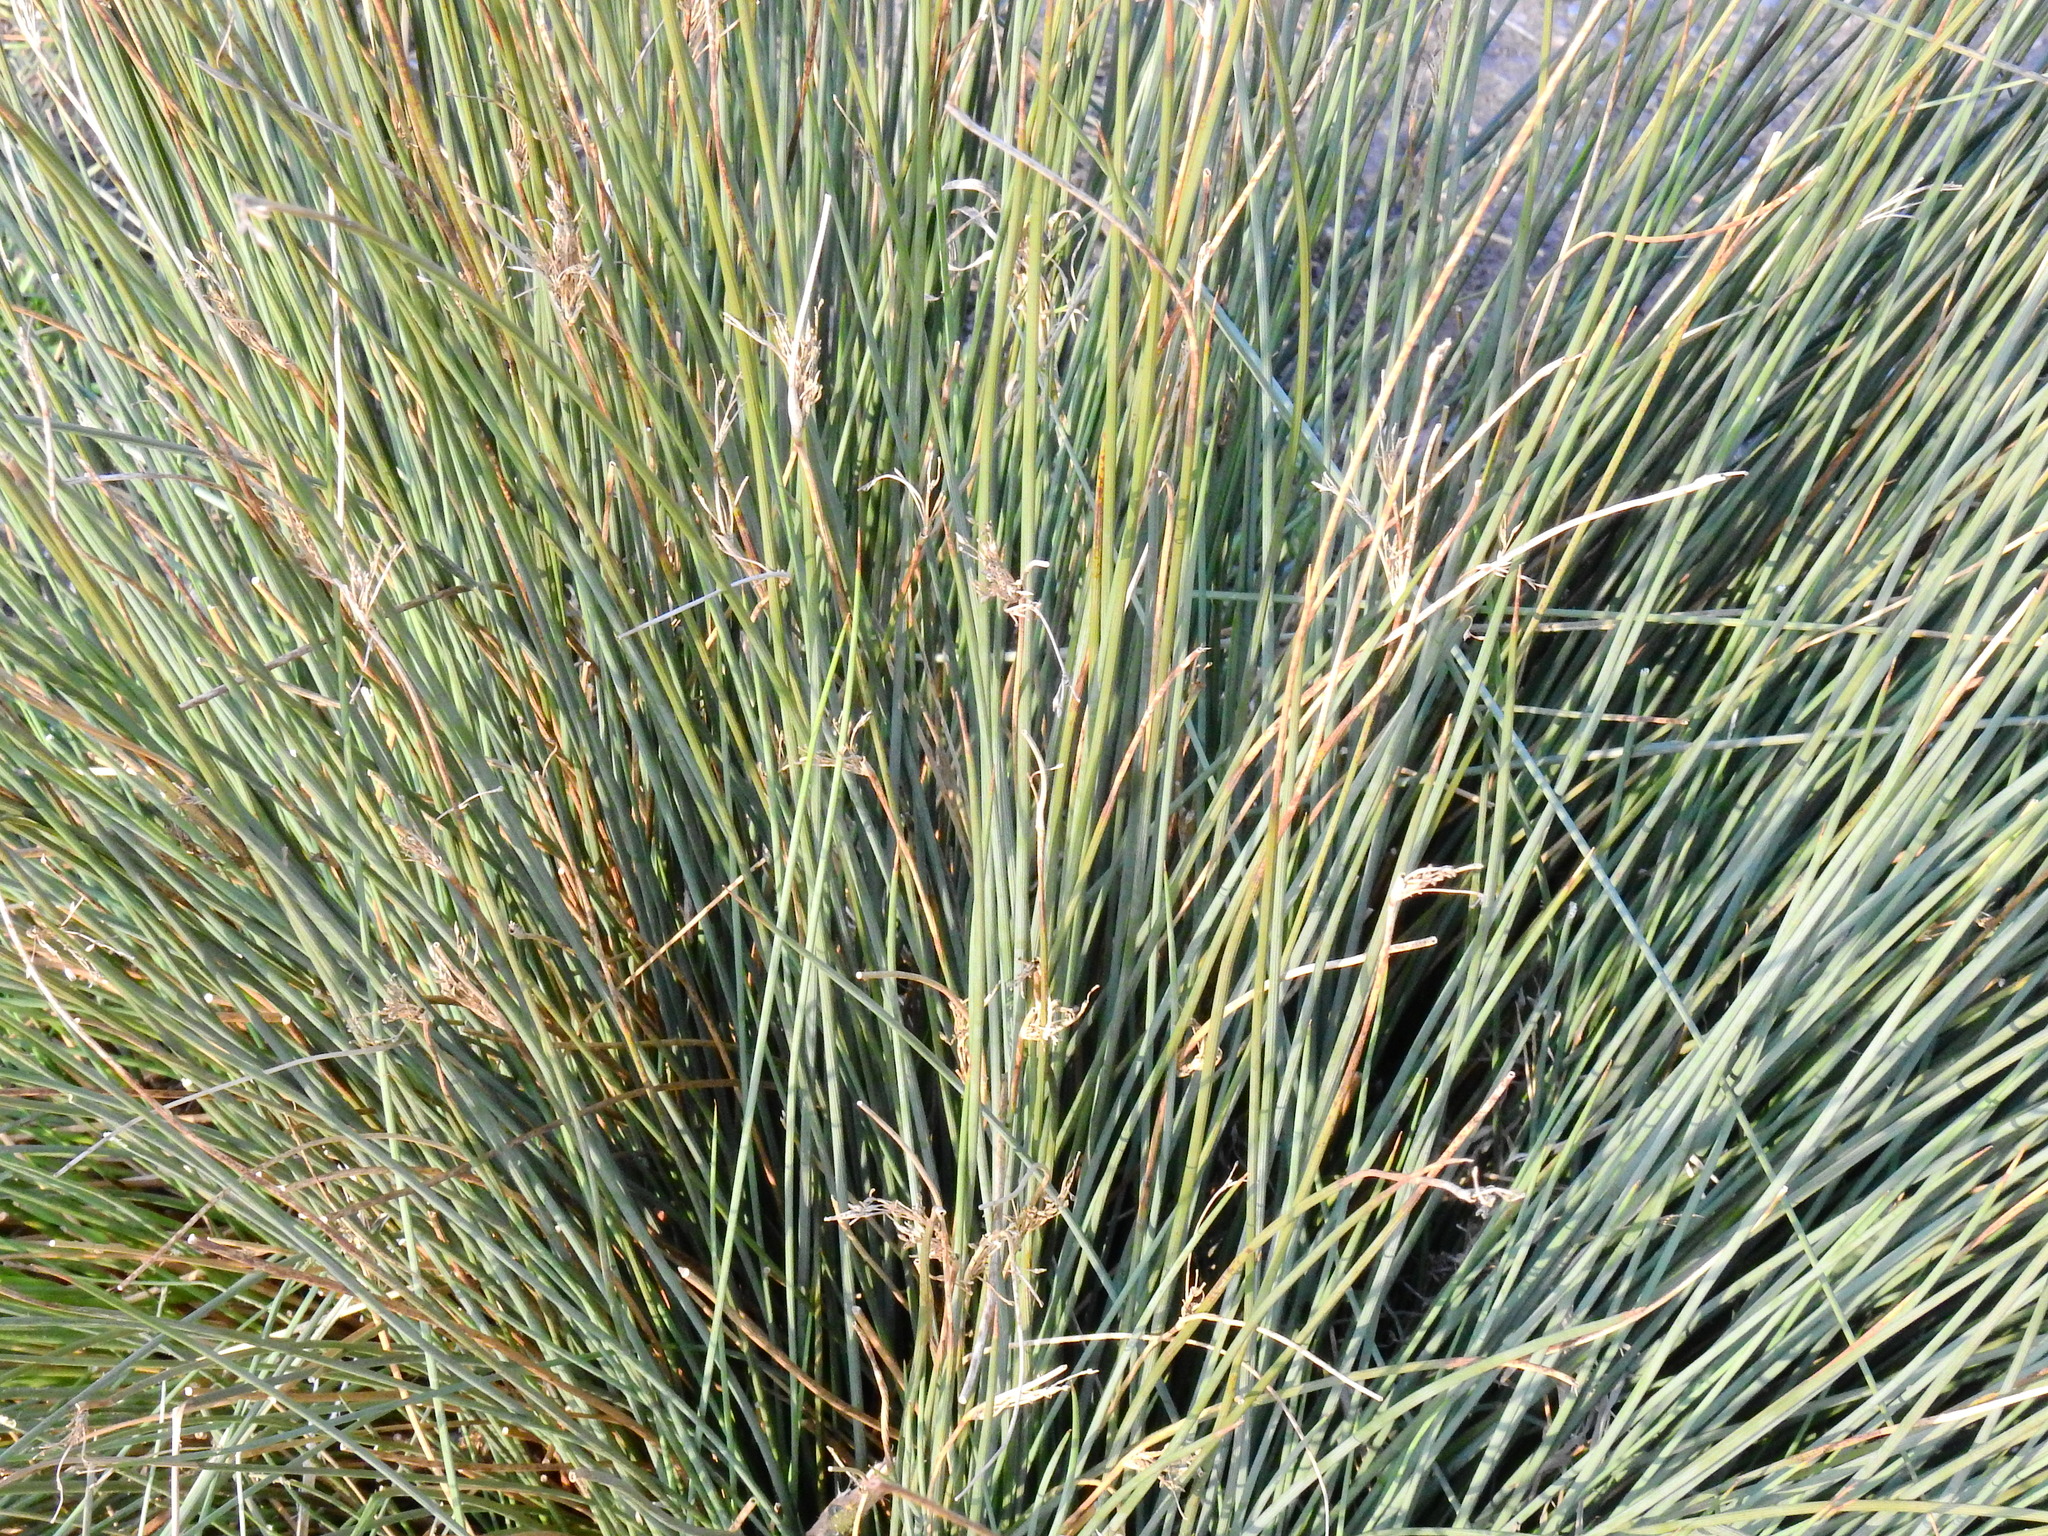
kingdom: Plantae
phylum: Tracheophyta
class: Liliopsida
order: Poales
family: Juncaceae
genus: Juncus
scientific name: Juncus inflexus
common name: Hard rush
